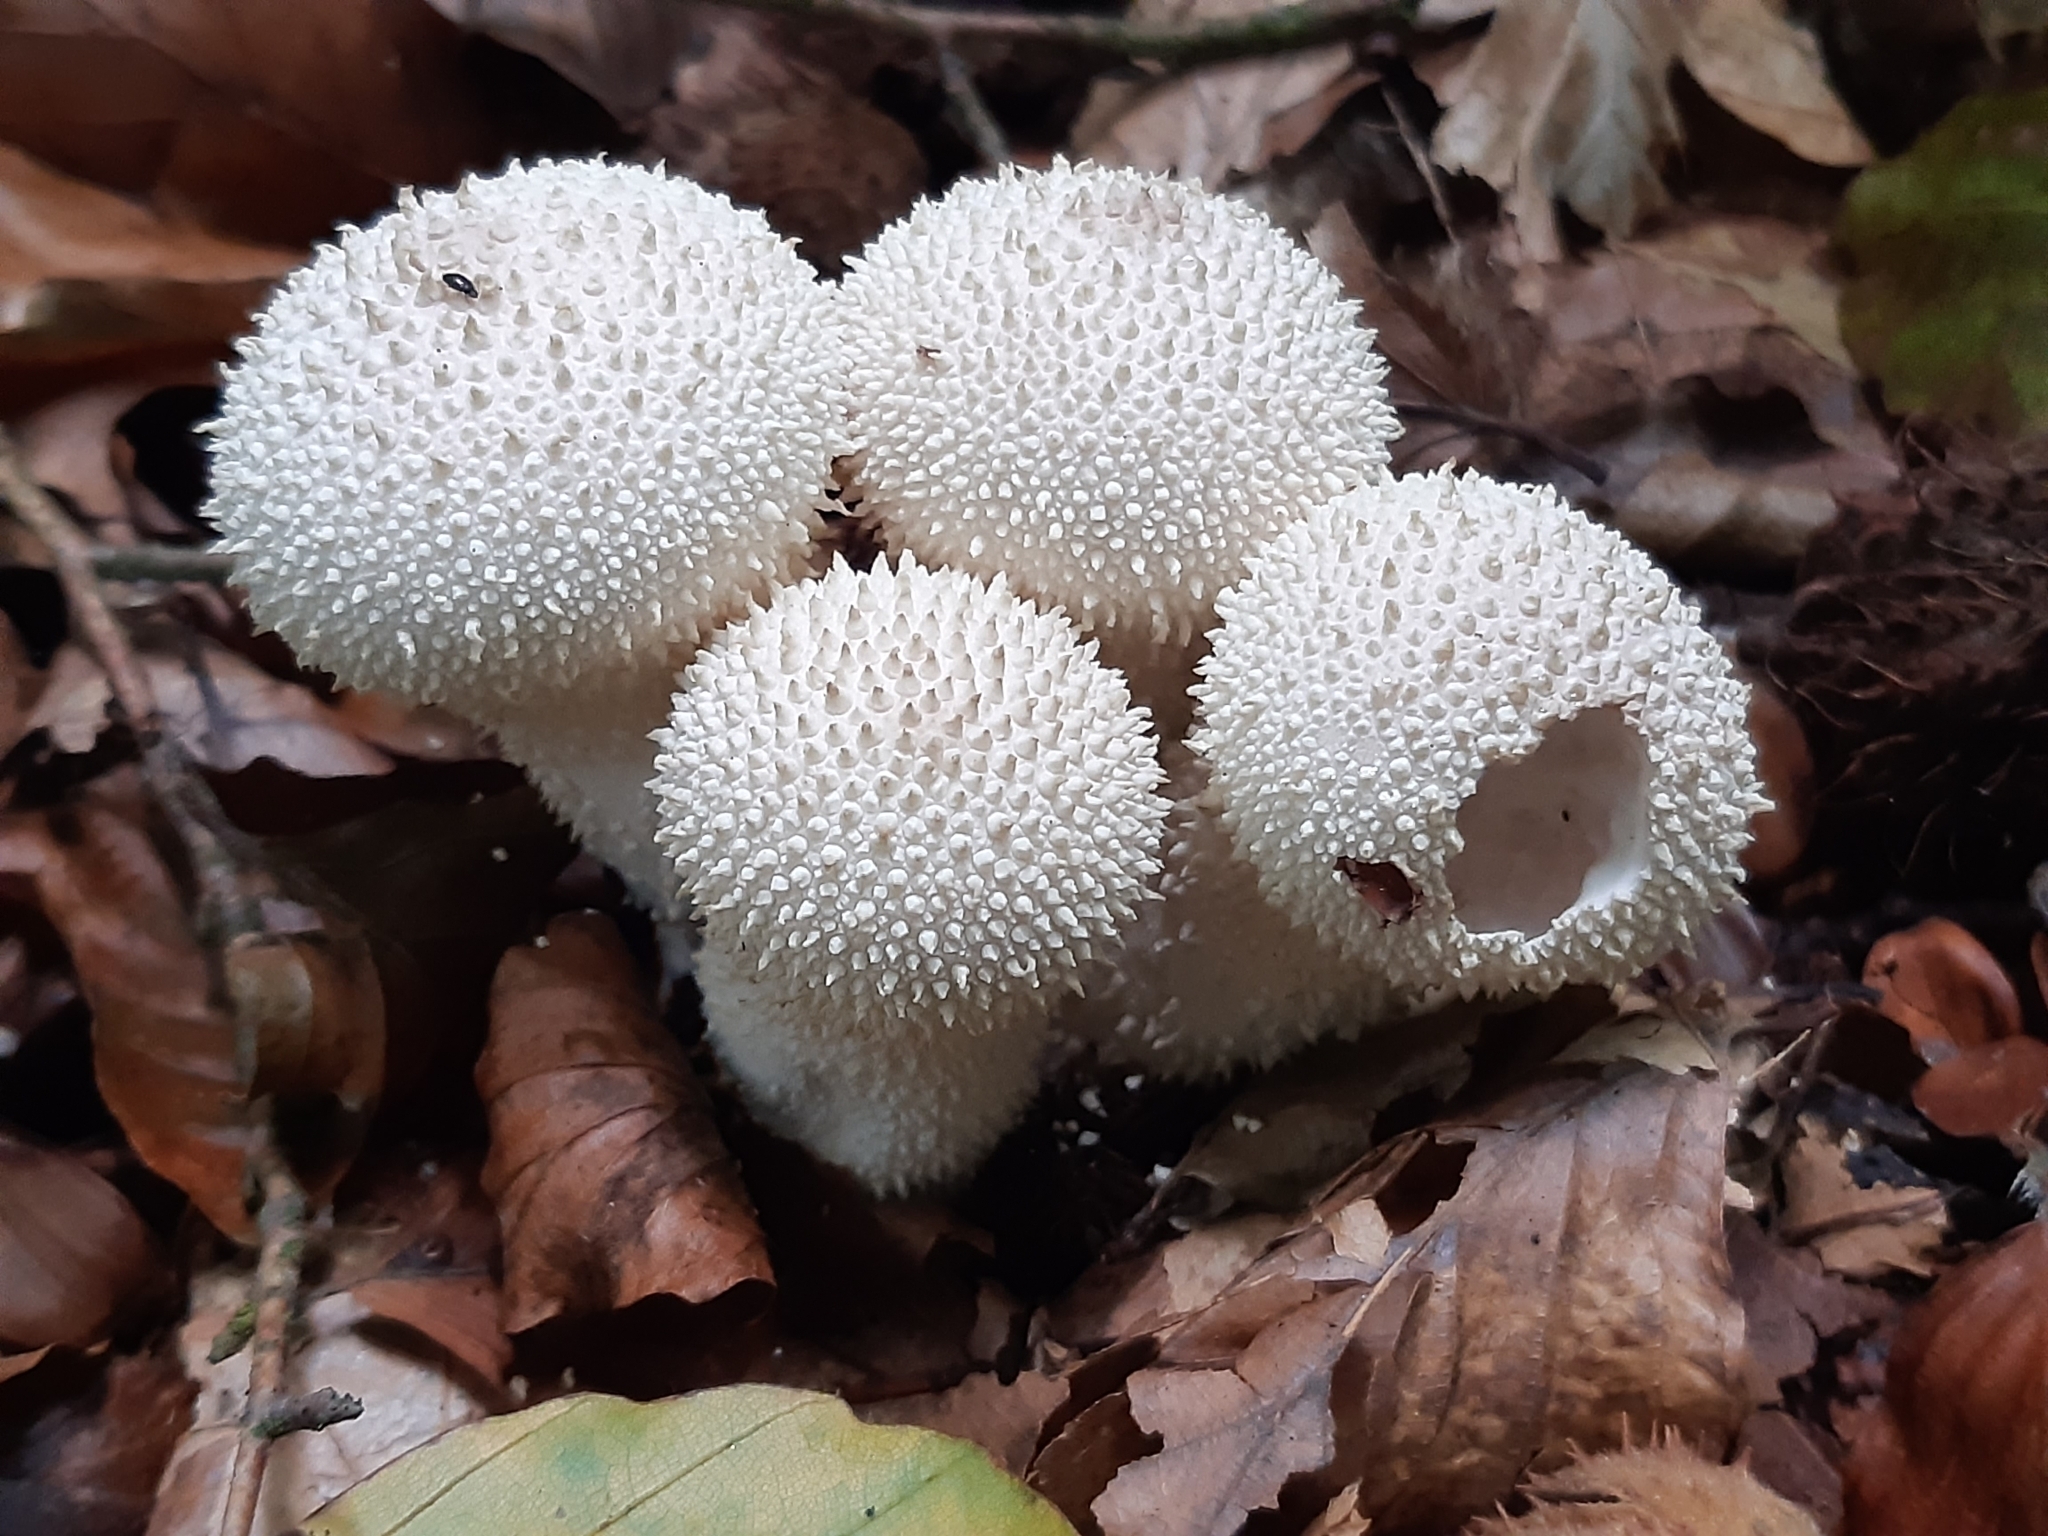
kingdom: Fungi
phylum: Basidiomycota
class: Agaricomycetes
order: Agaricales
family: Lycoperdaceae
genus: Lycoperdon
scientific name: Lycoperdon perlatum
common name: Common puffball
